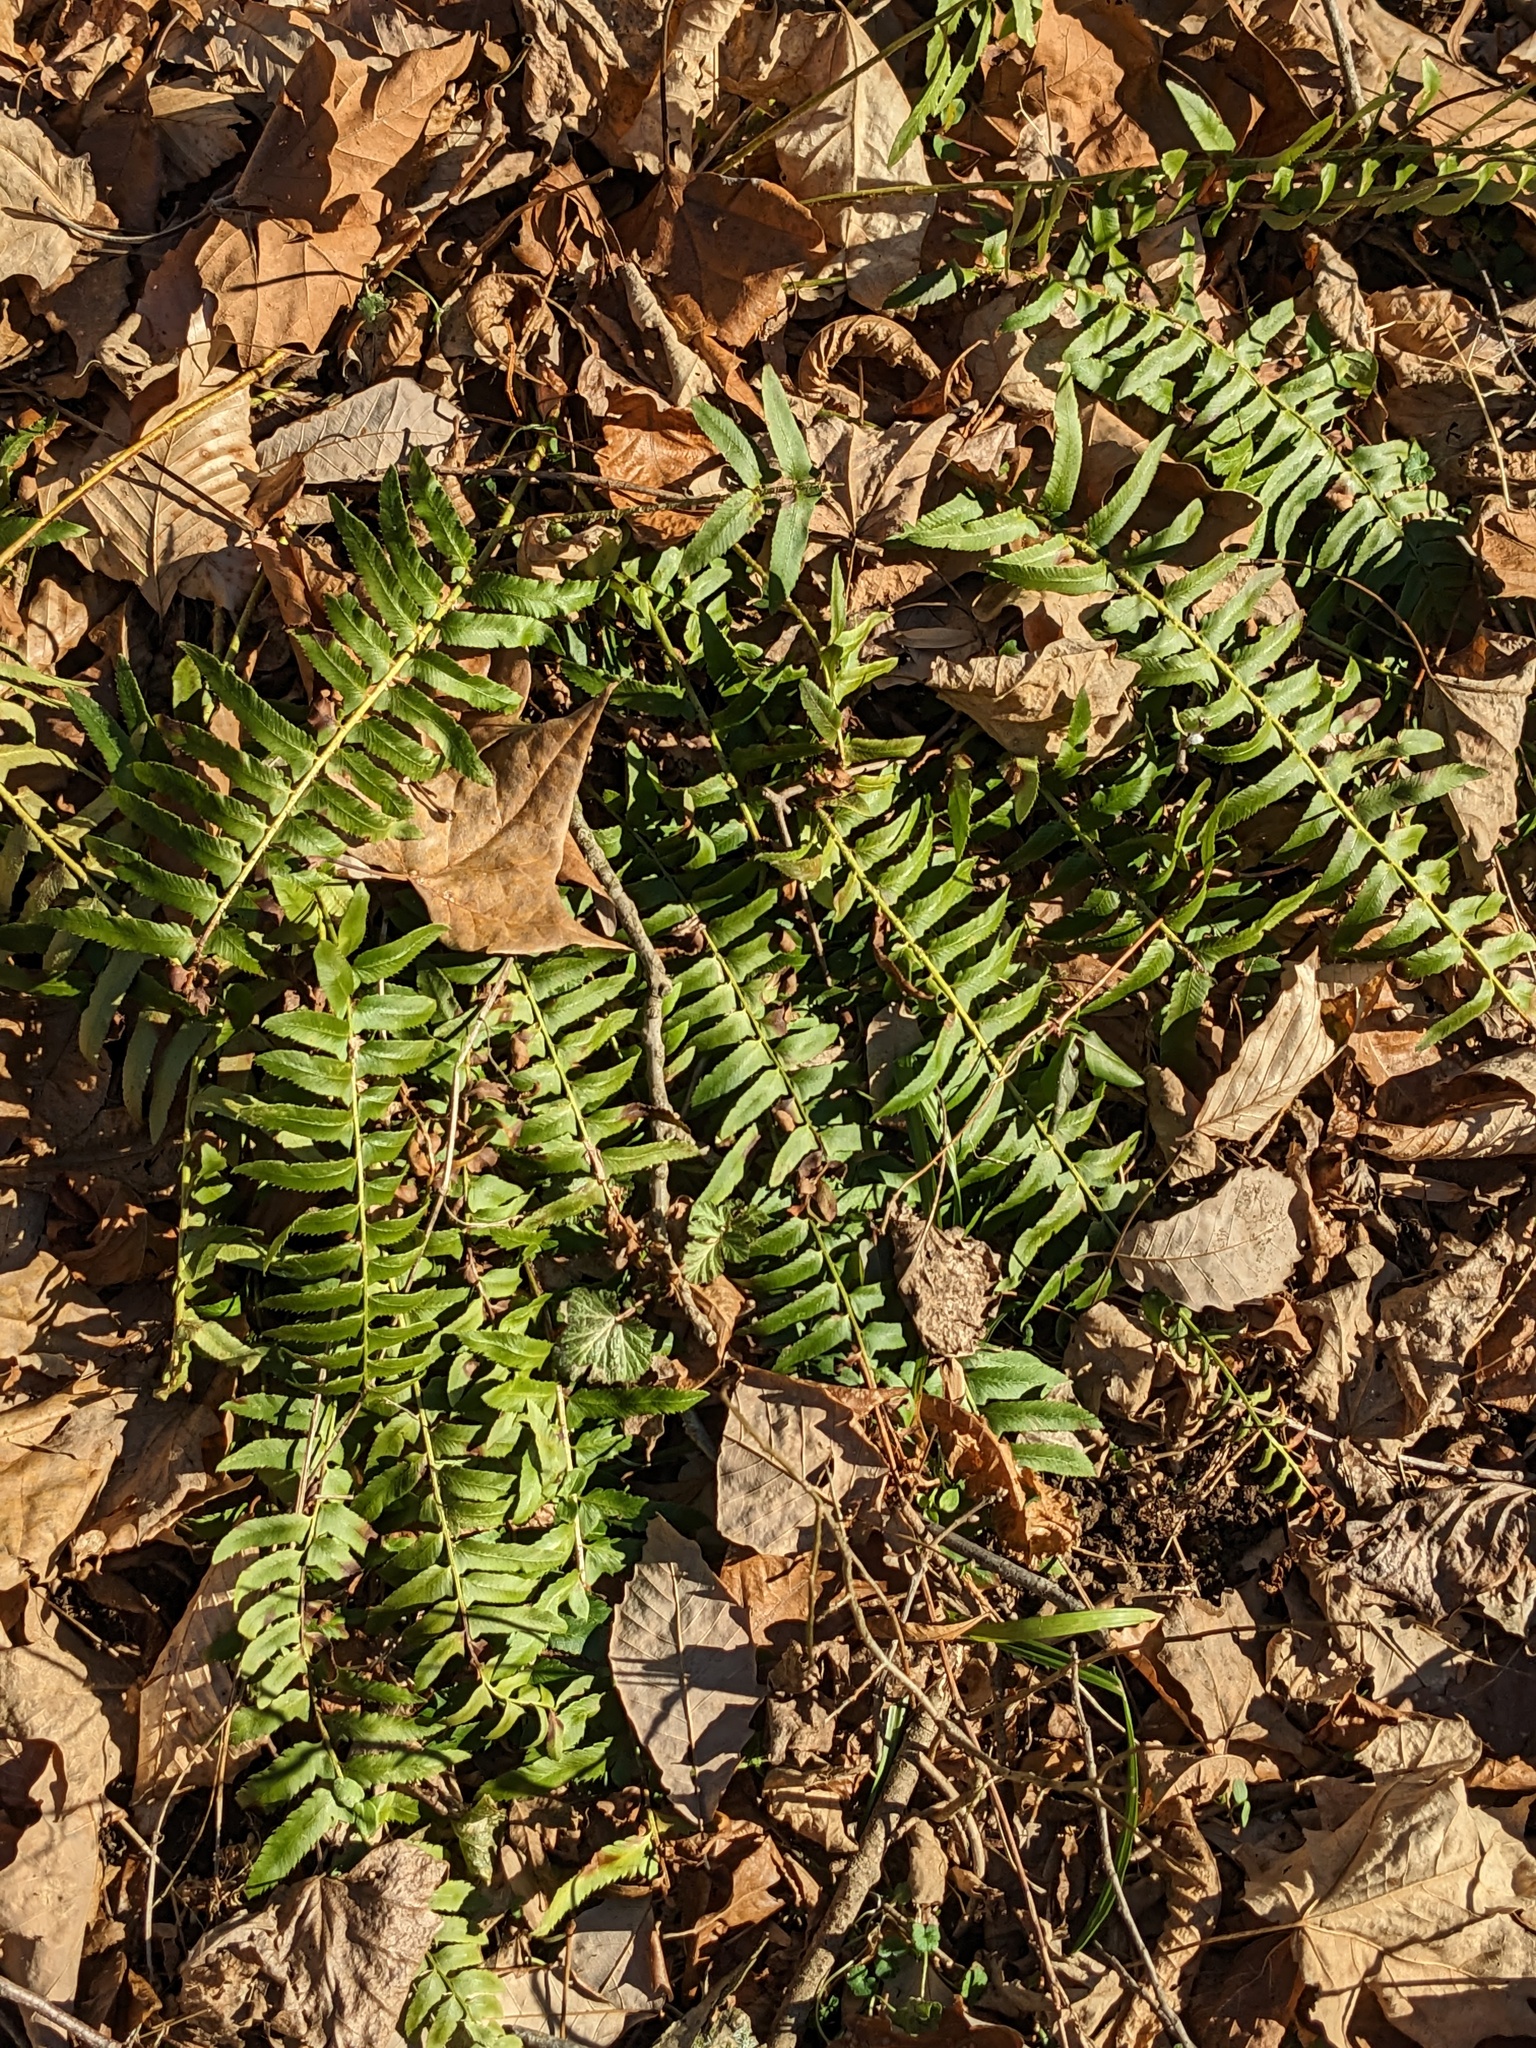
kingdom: Plantae
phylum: Tracheophyta
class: Polypodiopsida
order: Polypodiales
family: Dryopteridaceae
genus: Polystichum
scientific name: Polystichum acrostichoides
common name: Christmas fern
